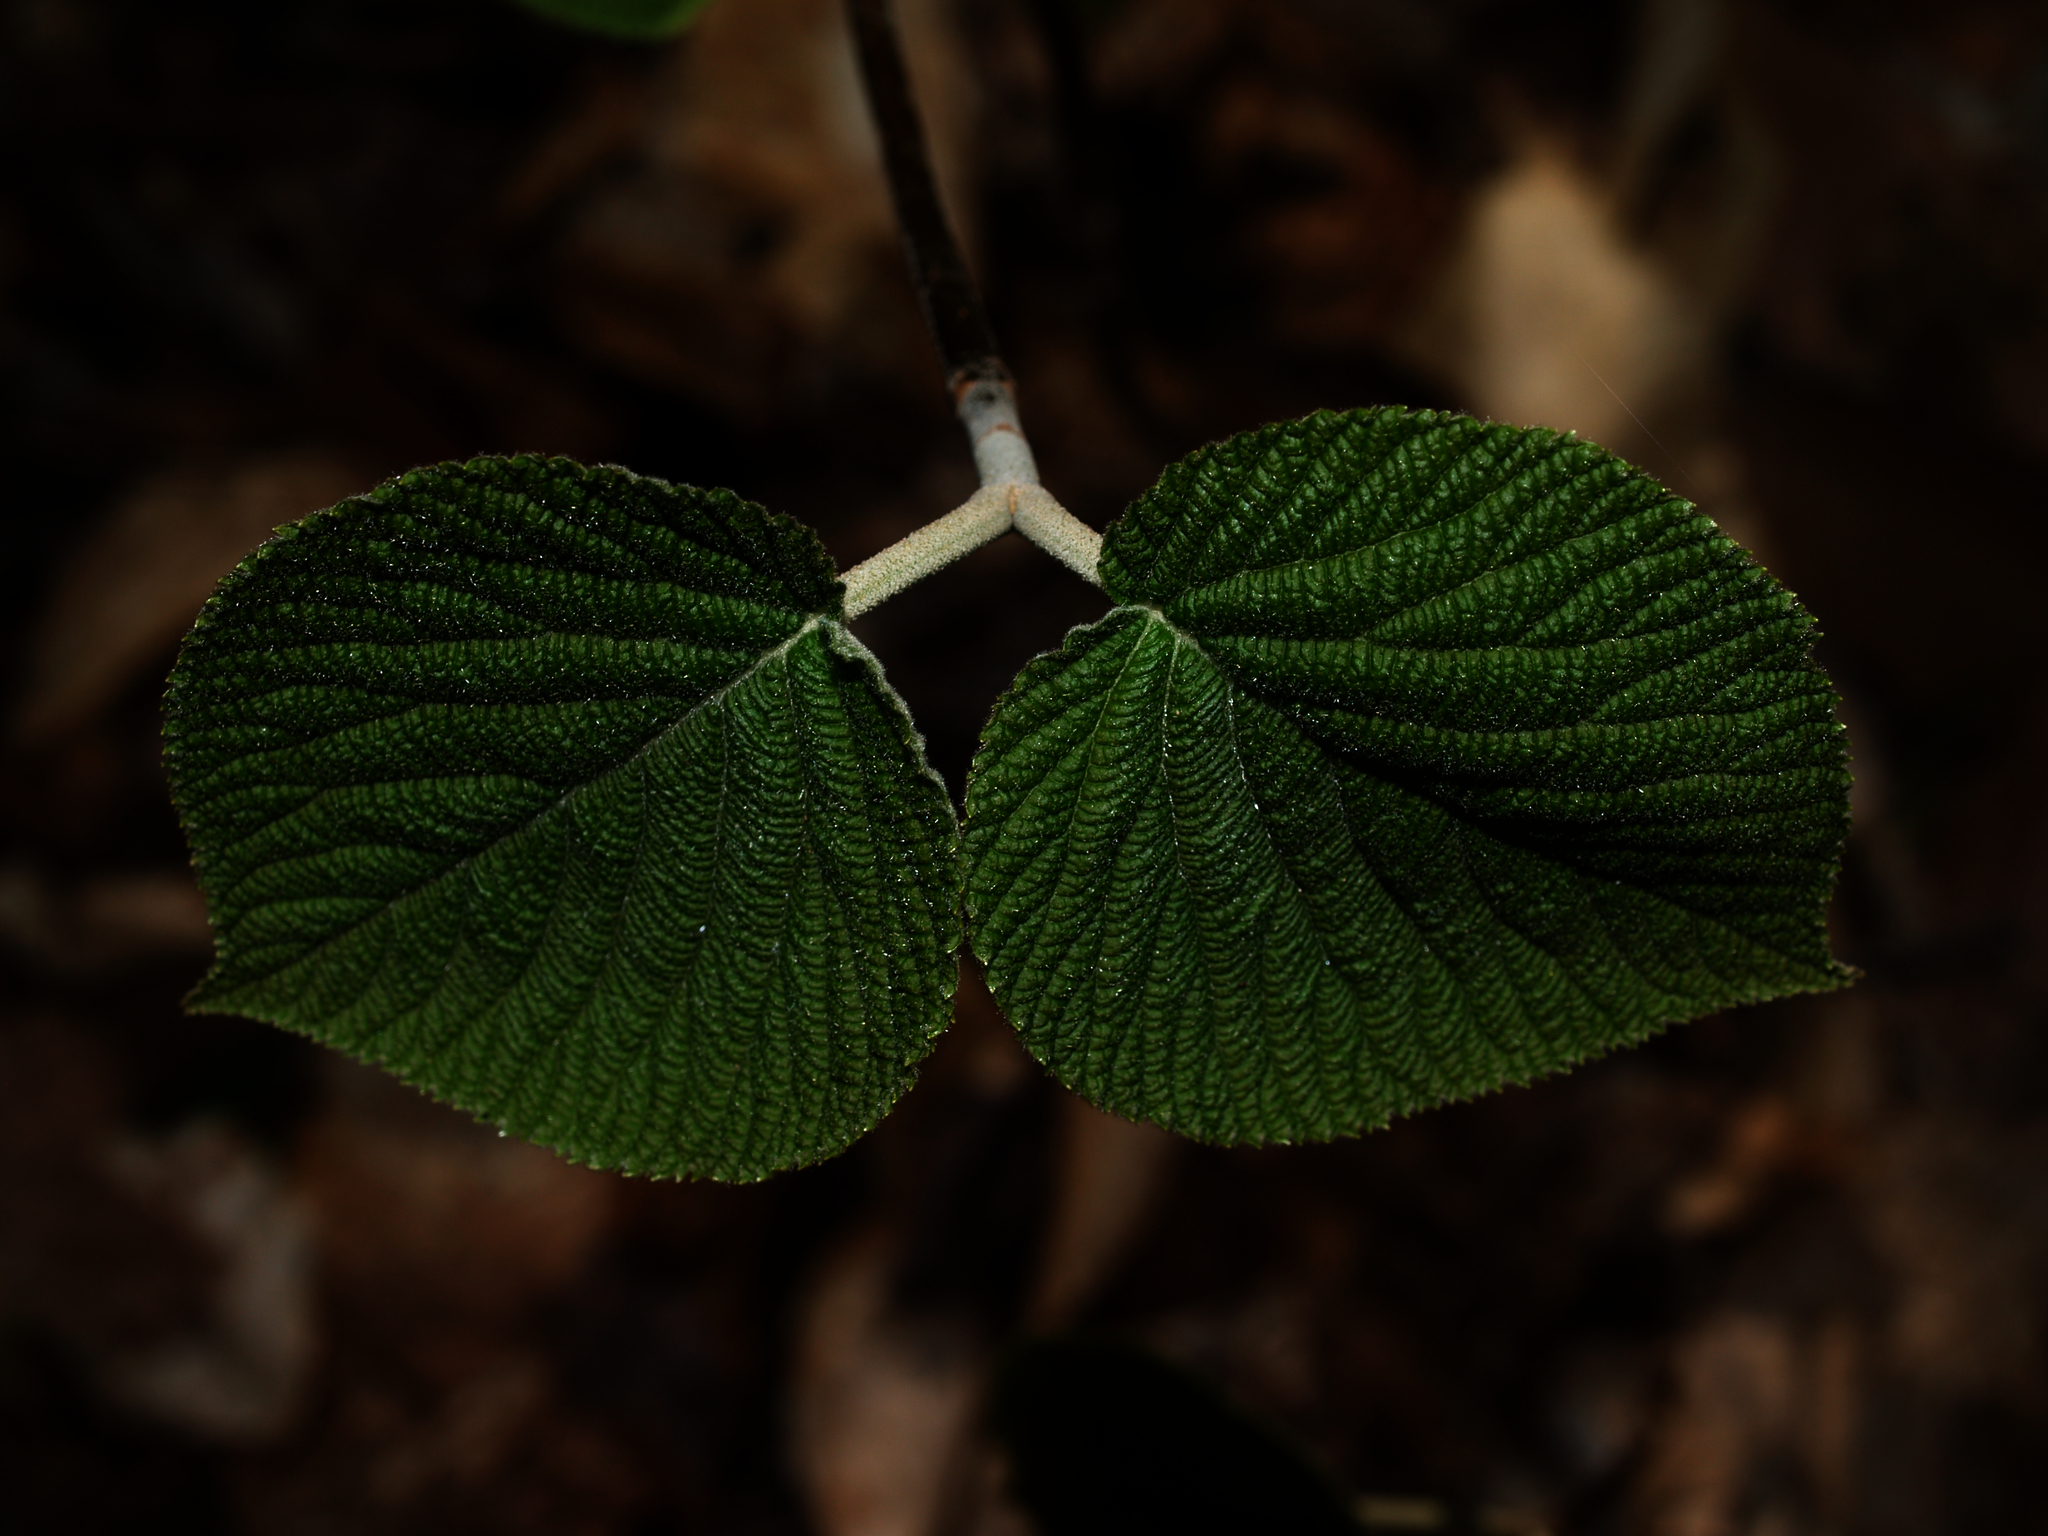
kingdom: Plantae
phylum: Tracheophyta
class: Magnoliopsida
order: Dipsacales
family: Viburnaceae
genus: Viburnum
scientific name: Viburnum lantanoides
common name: Hobblebush
